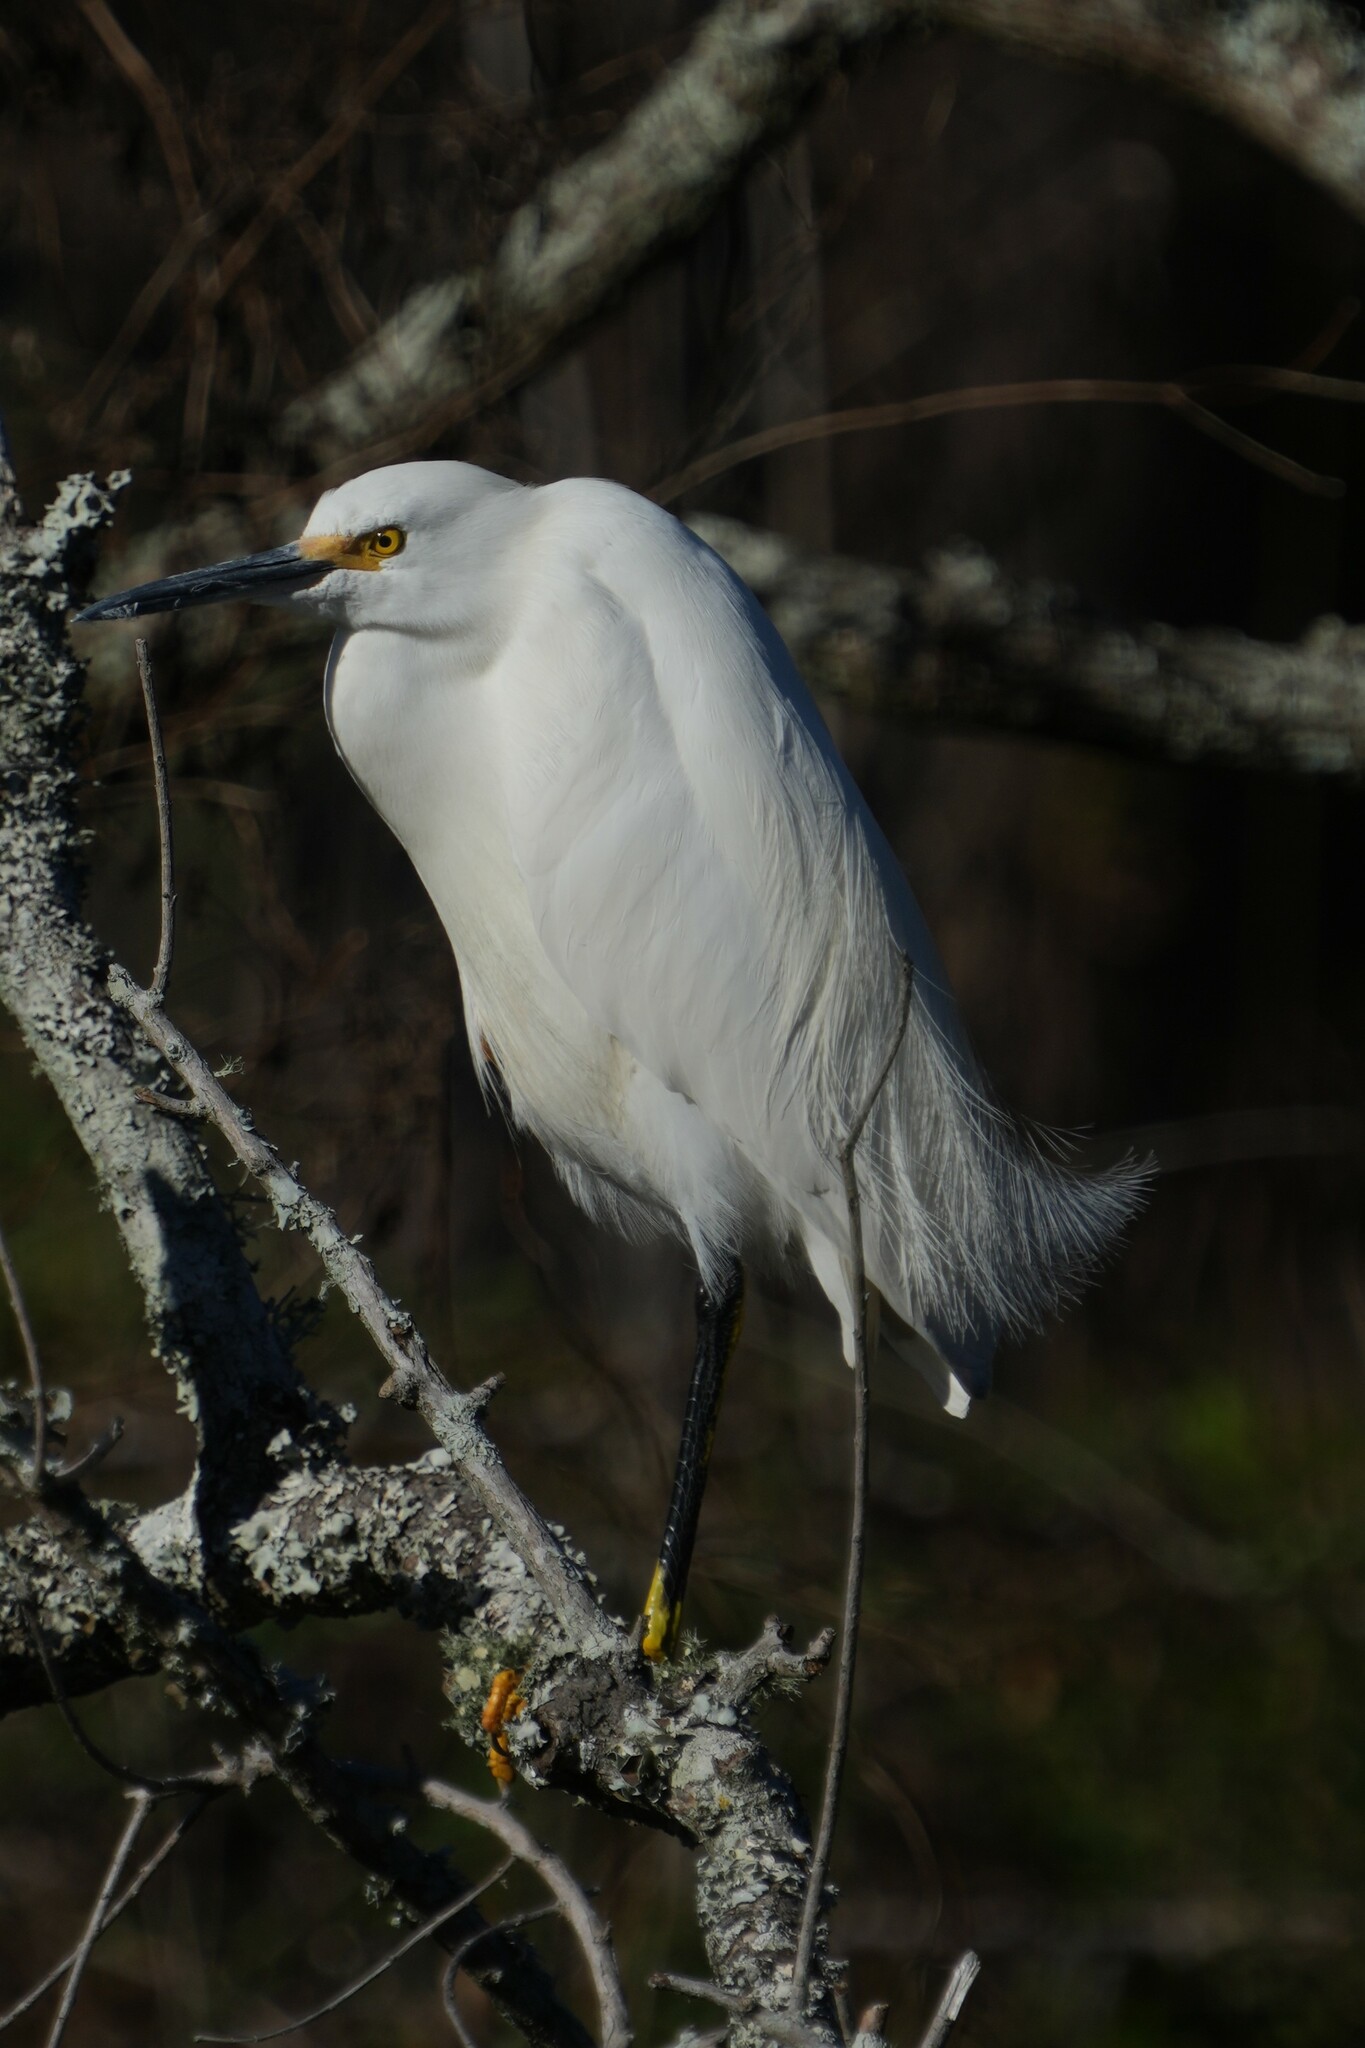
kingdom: Animalia
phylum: Chordata
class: Aves
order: Pelecaniformes
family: Ardeidae
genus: Egretta
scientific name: Egretta thula
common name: Snowy egret
